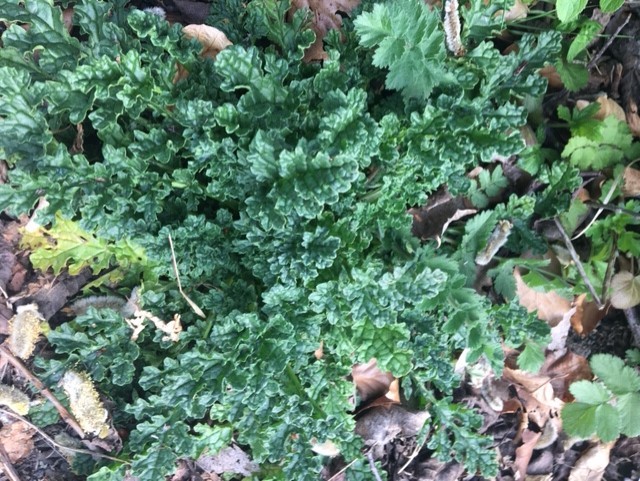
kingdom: Plantae
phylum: Tracheophyta
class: Magnoliopsida
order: Asterales
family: Asteraceae
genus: Jacobaea
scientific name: Jacobaea vulgaris
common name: Stinking willie
